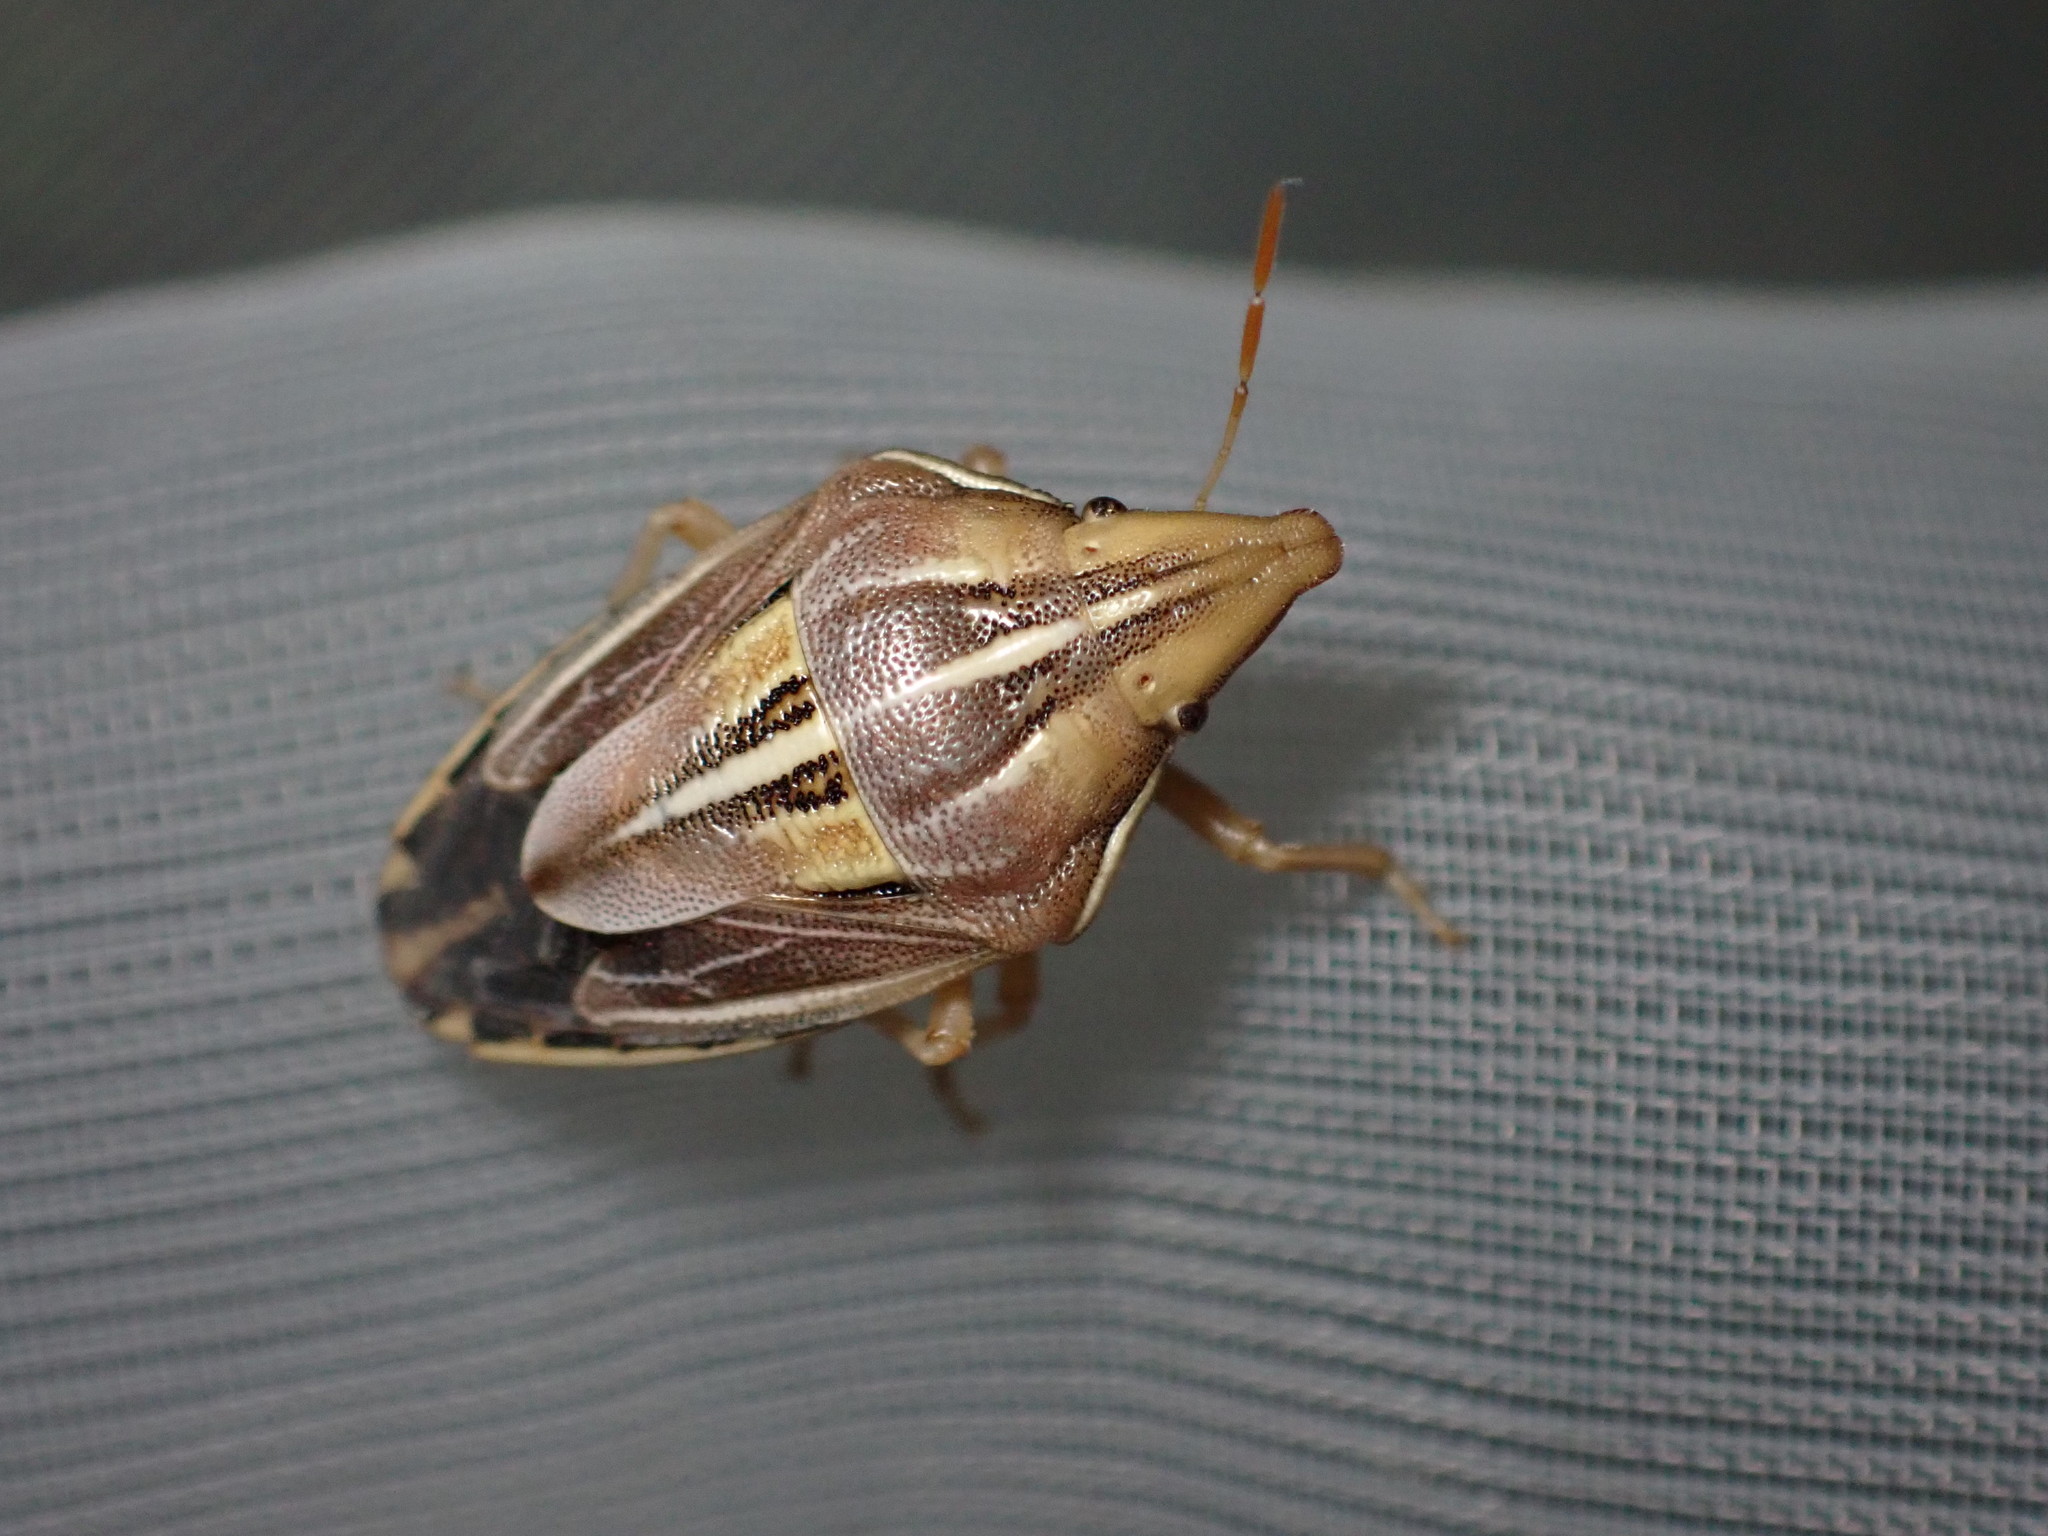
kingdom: Animalia
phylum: Arthropoda
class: Insecta
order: Hemiptera
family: Pentatomidae
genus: Aelia
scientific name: Aelia rostrata
